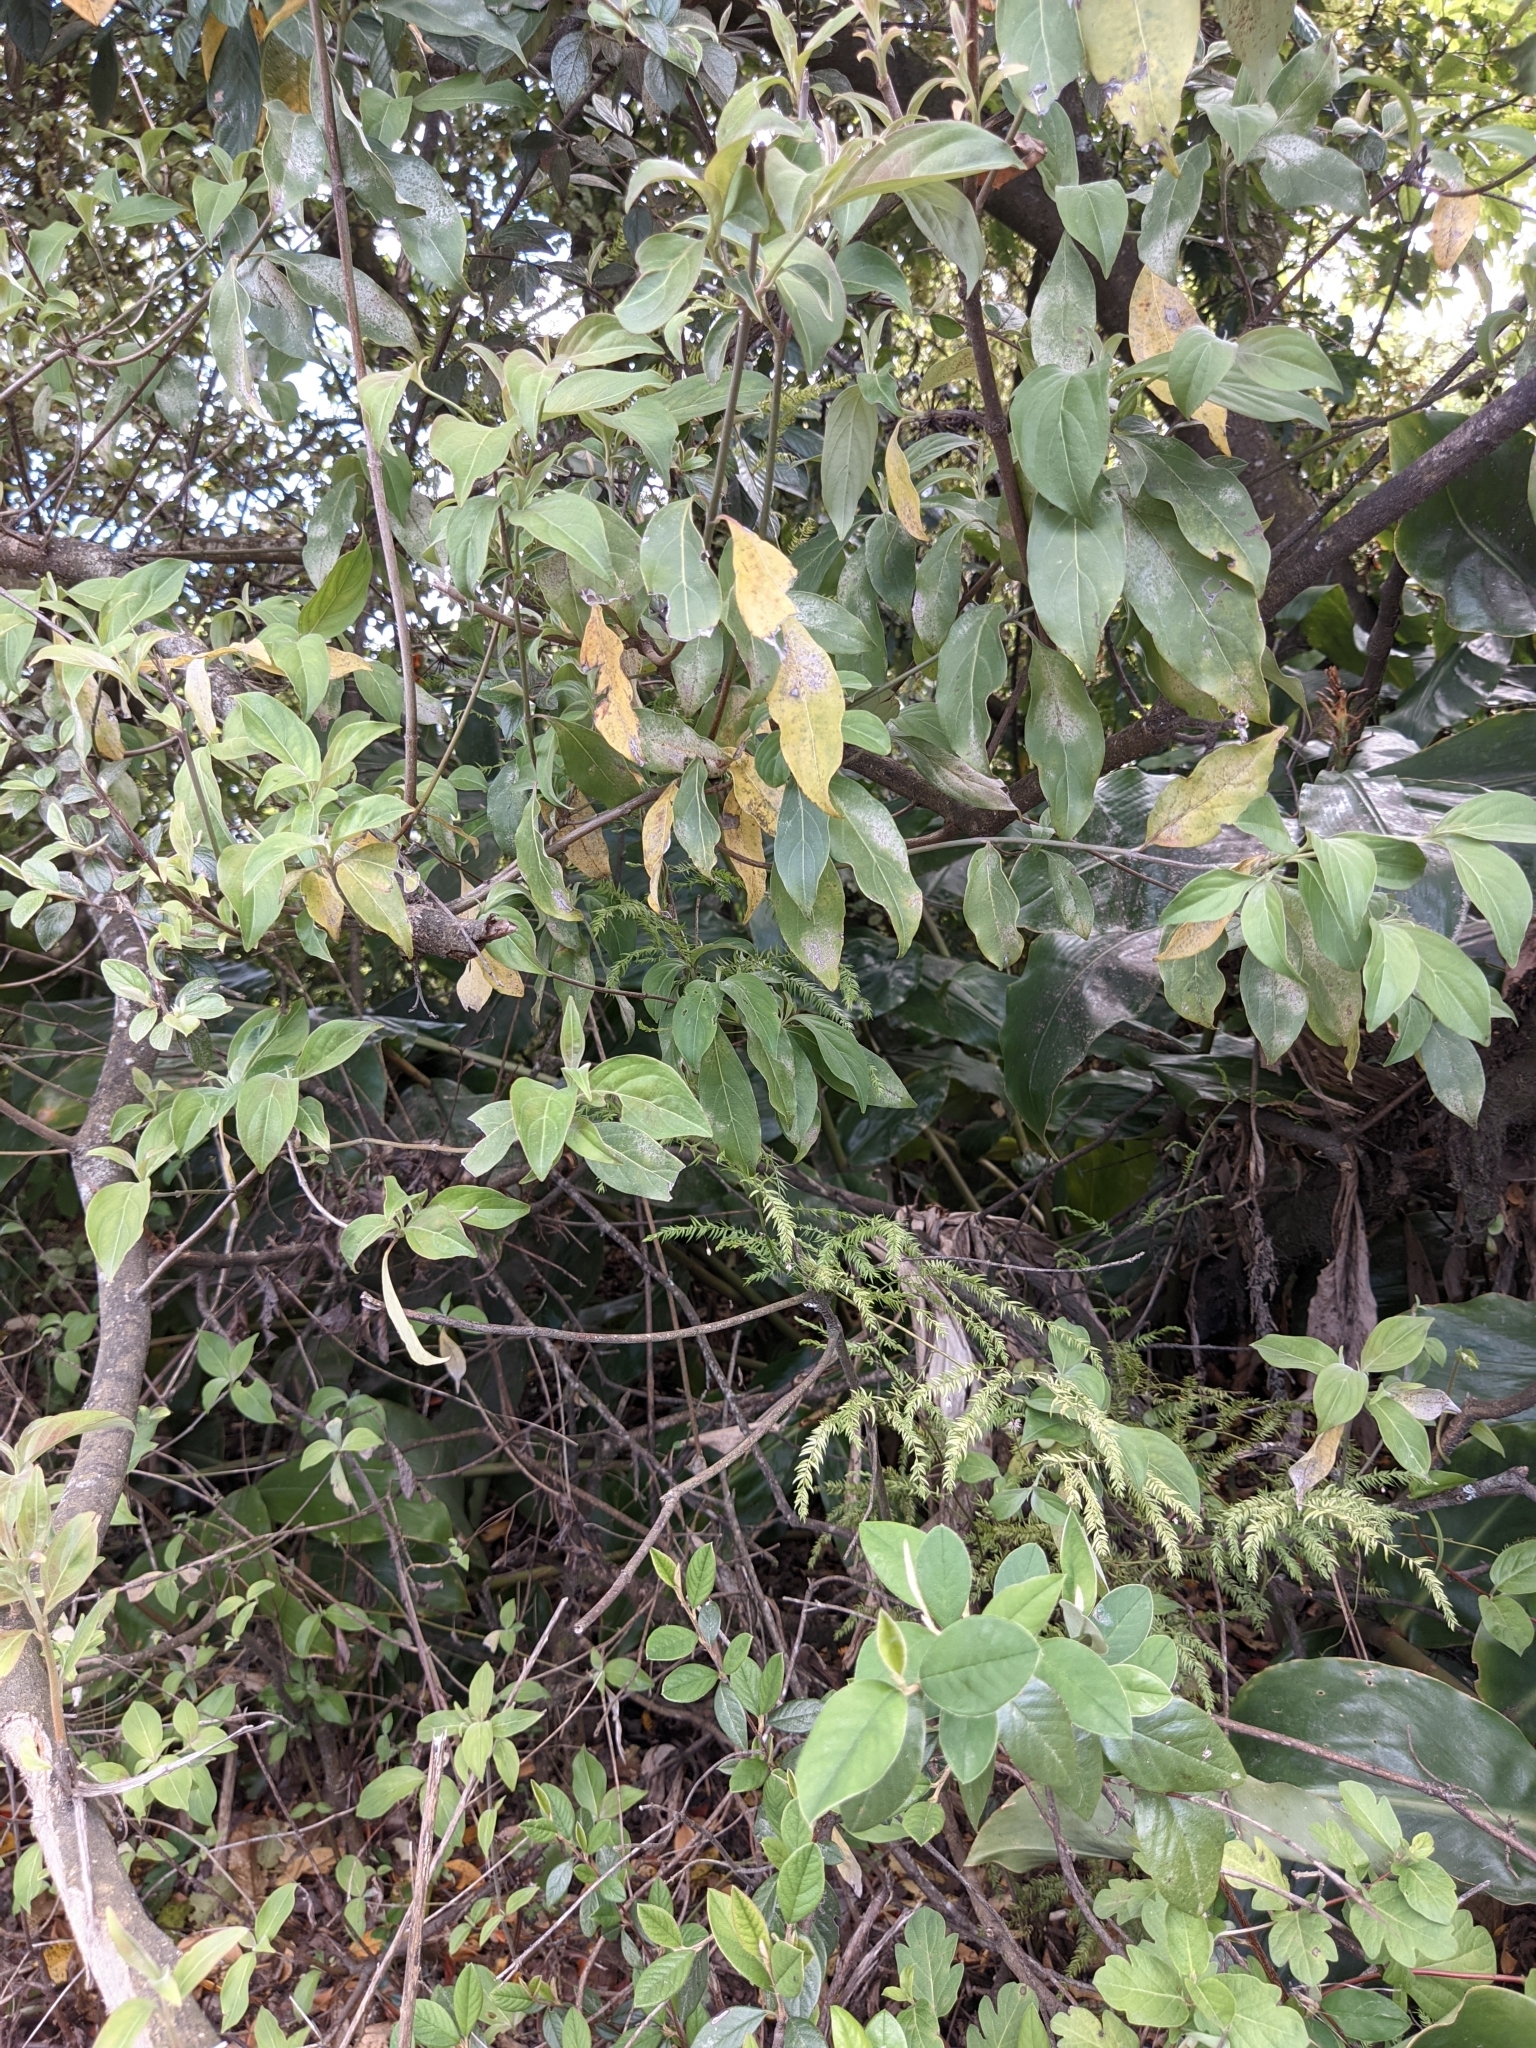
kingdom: Plantae
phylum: Tracheophyta
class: Liliopsida
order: Asparagales
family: Asparagaceae
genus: Asparagus
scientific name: Asparagus scandens
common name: Asparagus-fern
